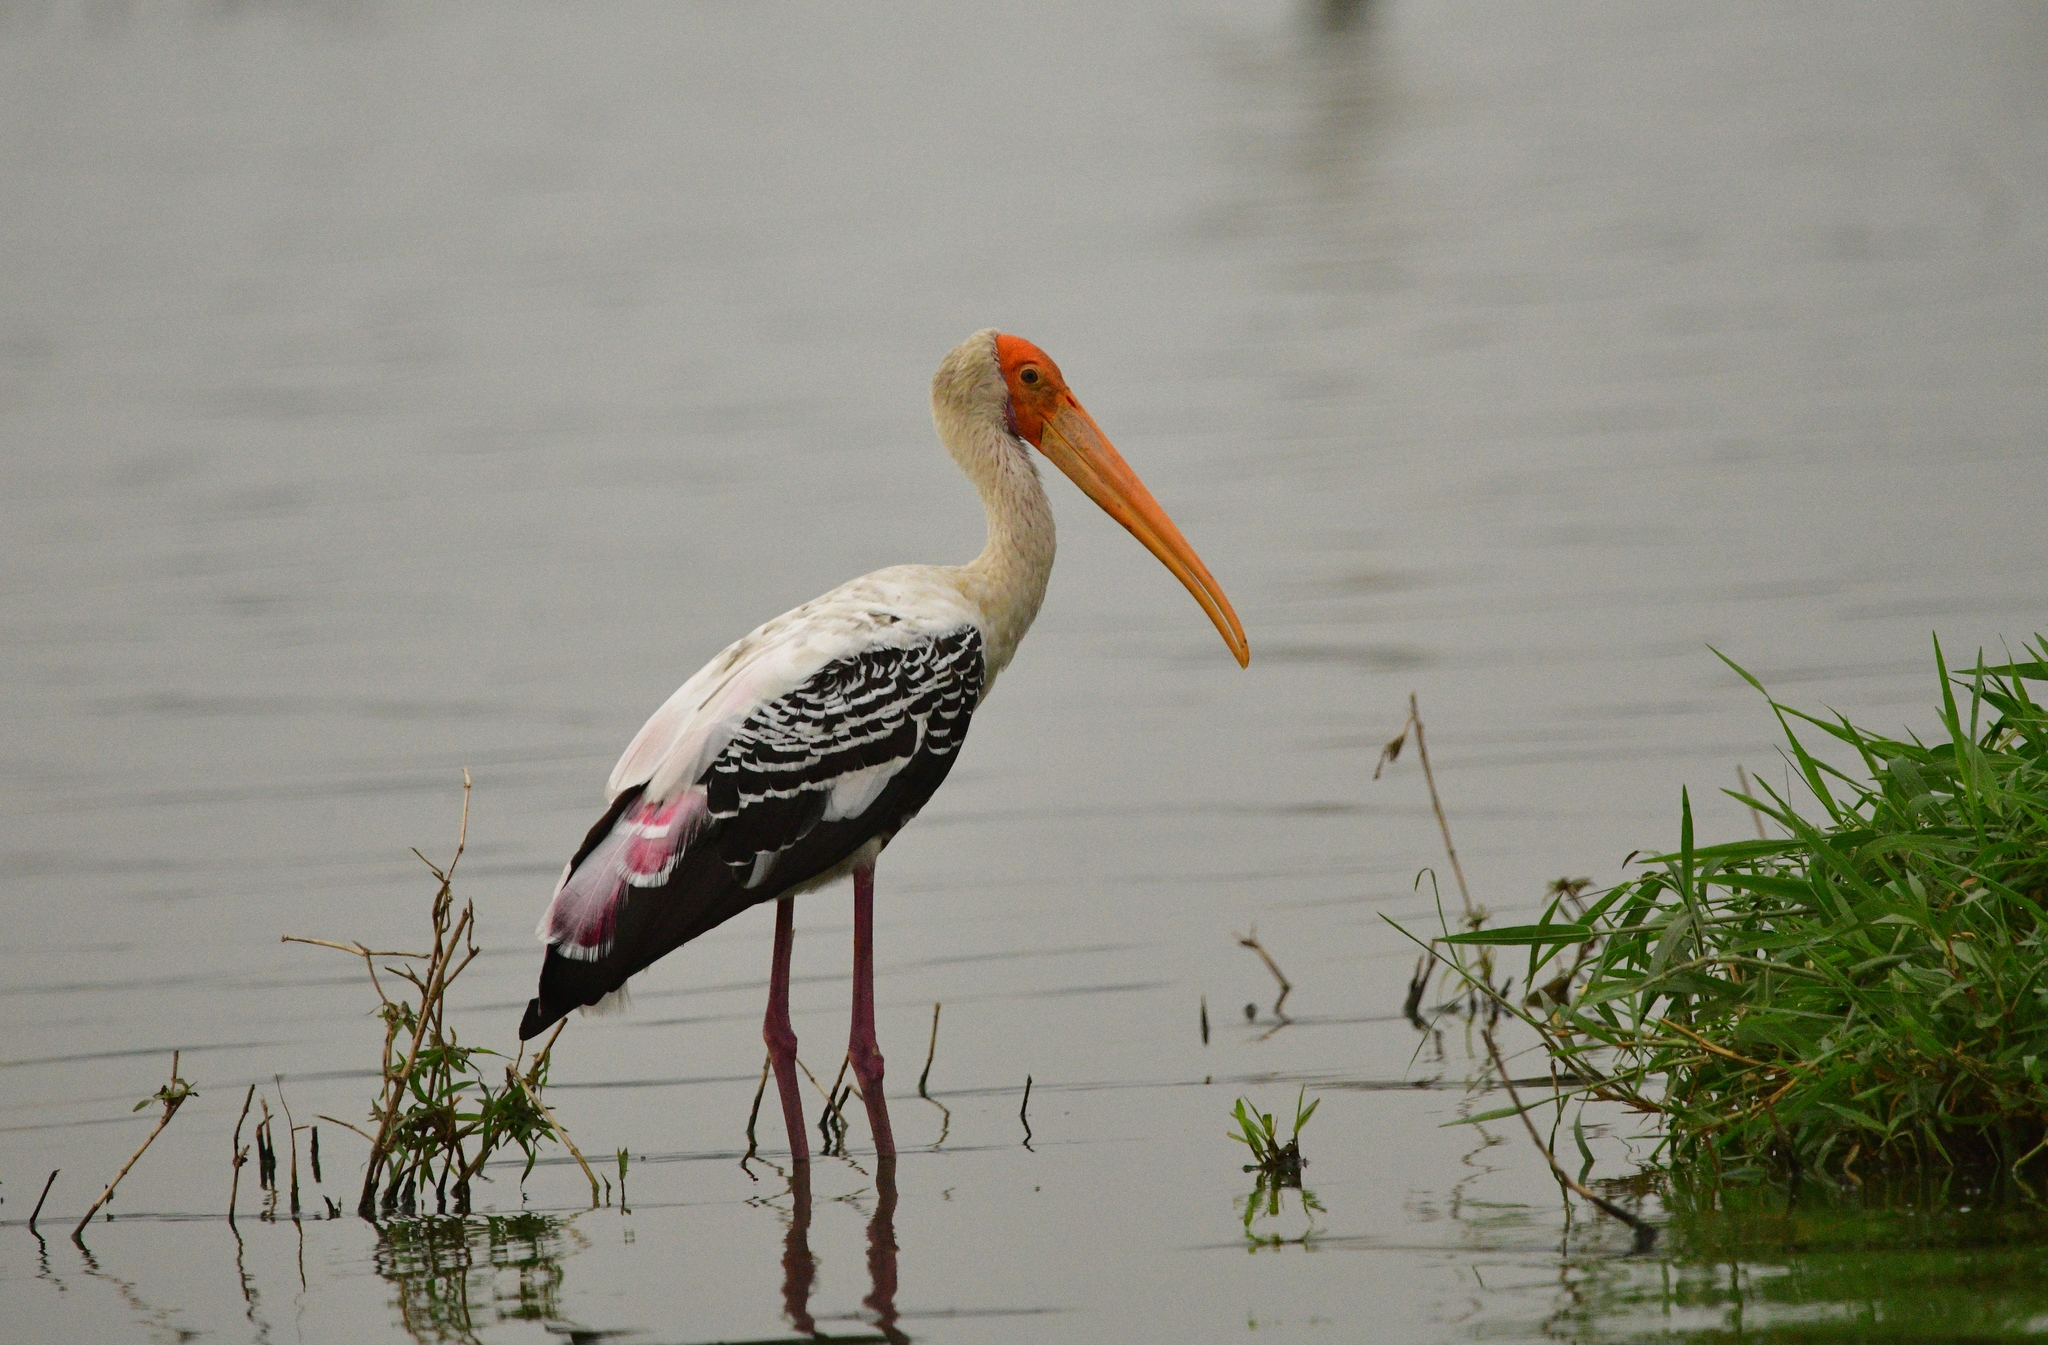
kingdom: Animalia
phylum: Chordata
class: Aves
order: Ciconiiformes
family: Ciconiidae
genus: Mycteria
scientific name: Mycteria leucocephala
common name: Painted stork
